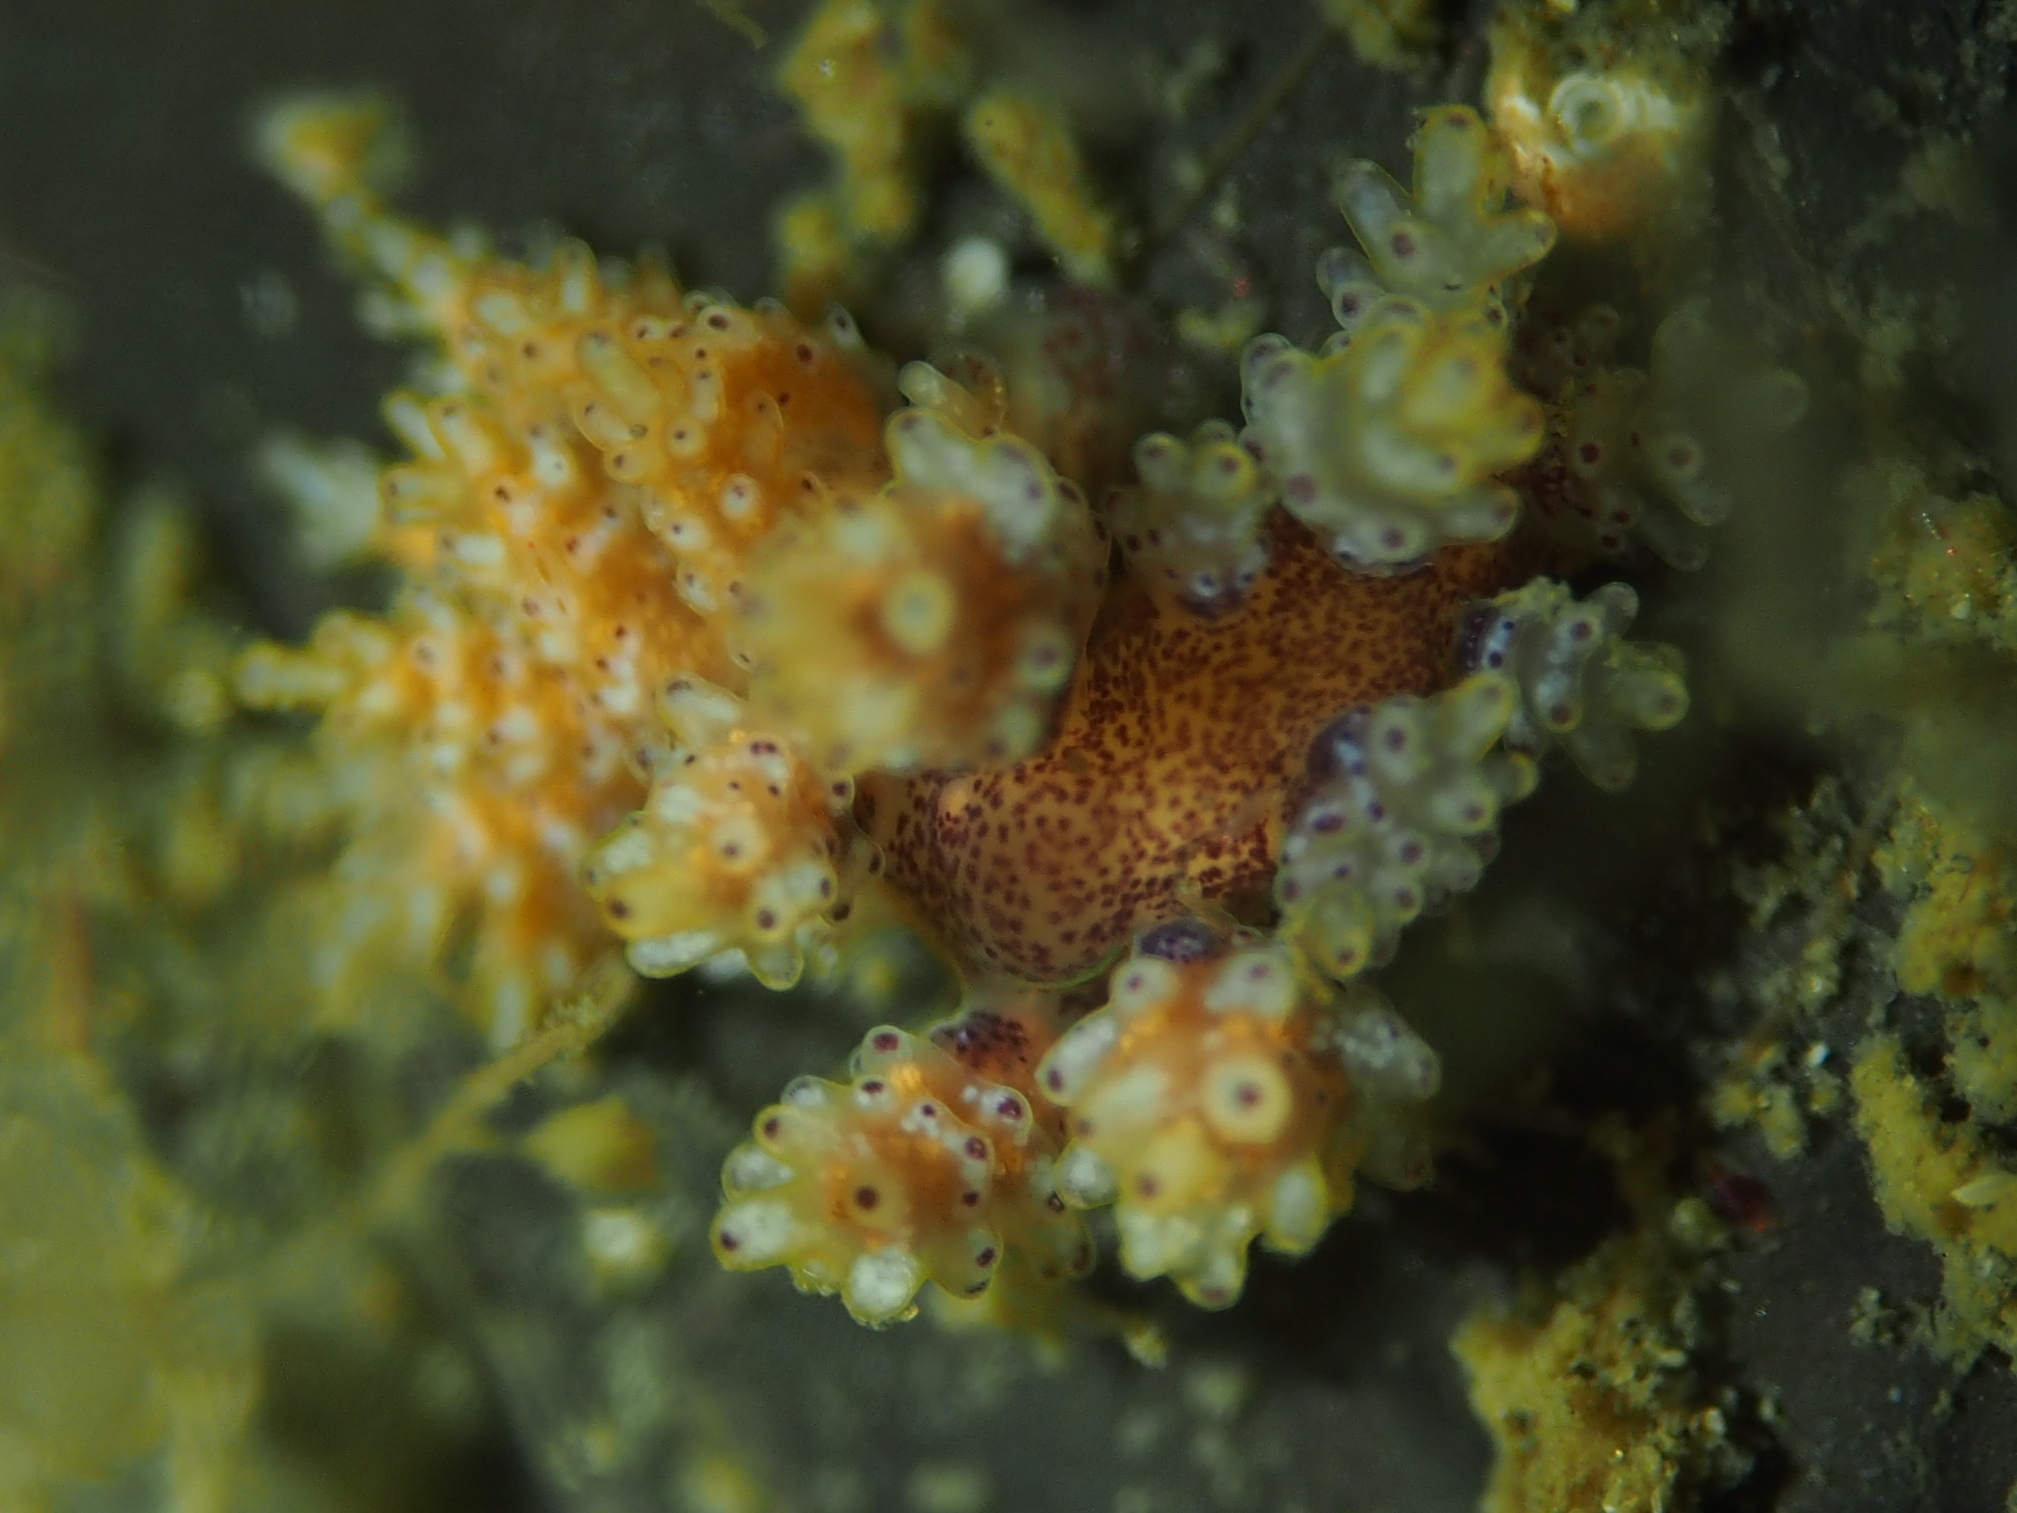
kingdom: Animalia
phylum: Mollusca
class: Gastropoda
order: Nudibranchia
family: Dotidae
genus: Doto
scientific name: Doto maculata
